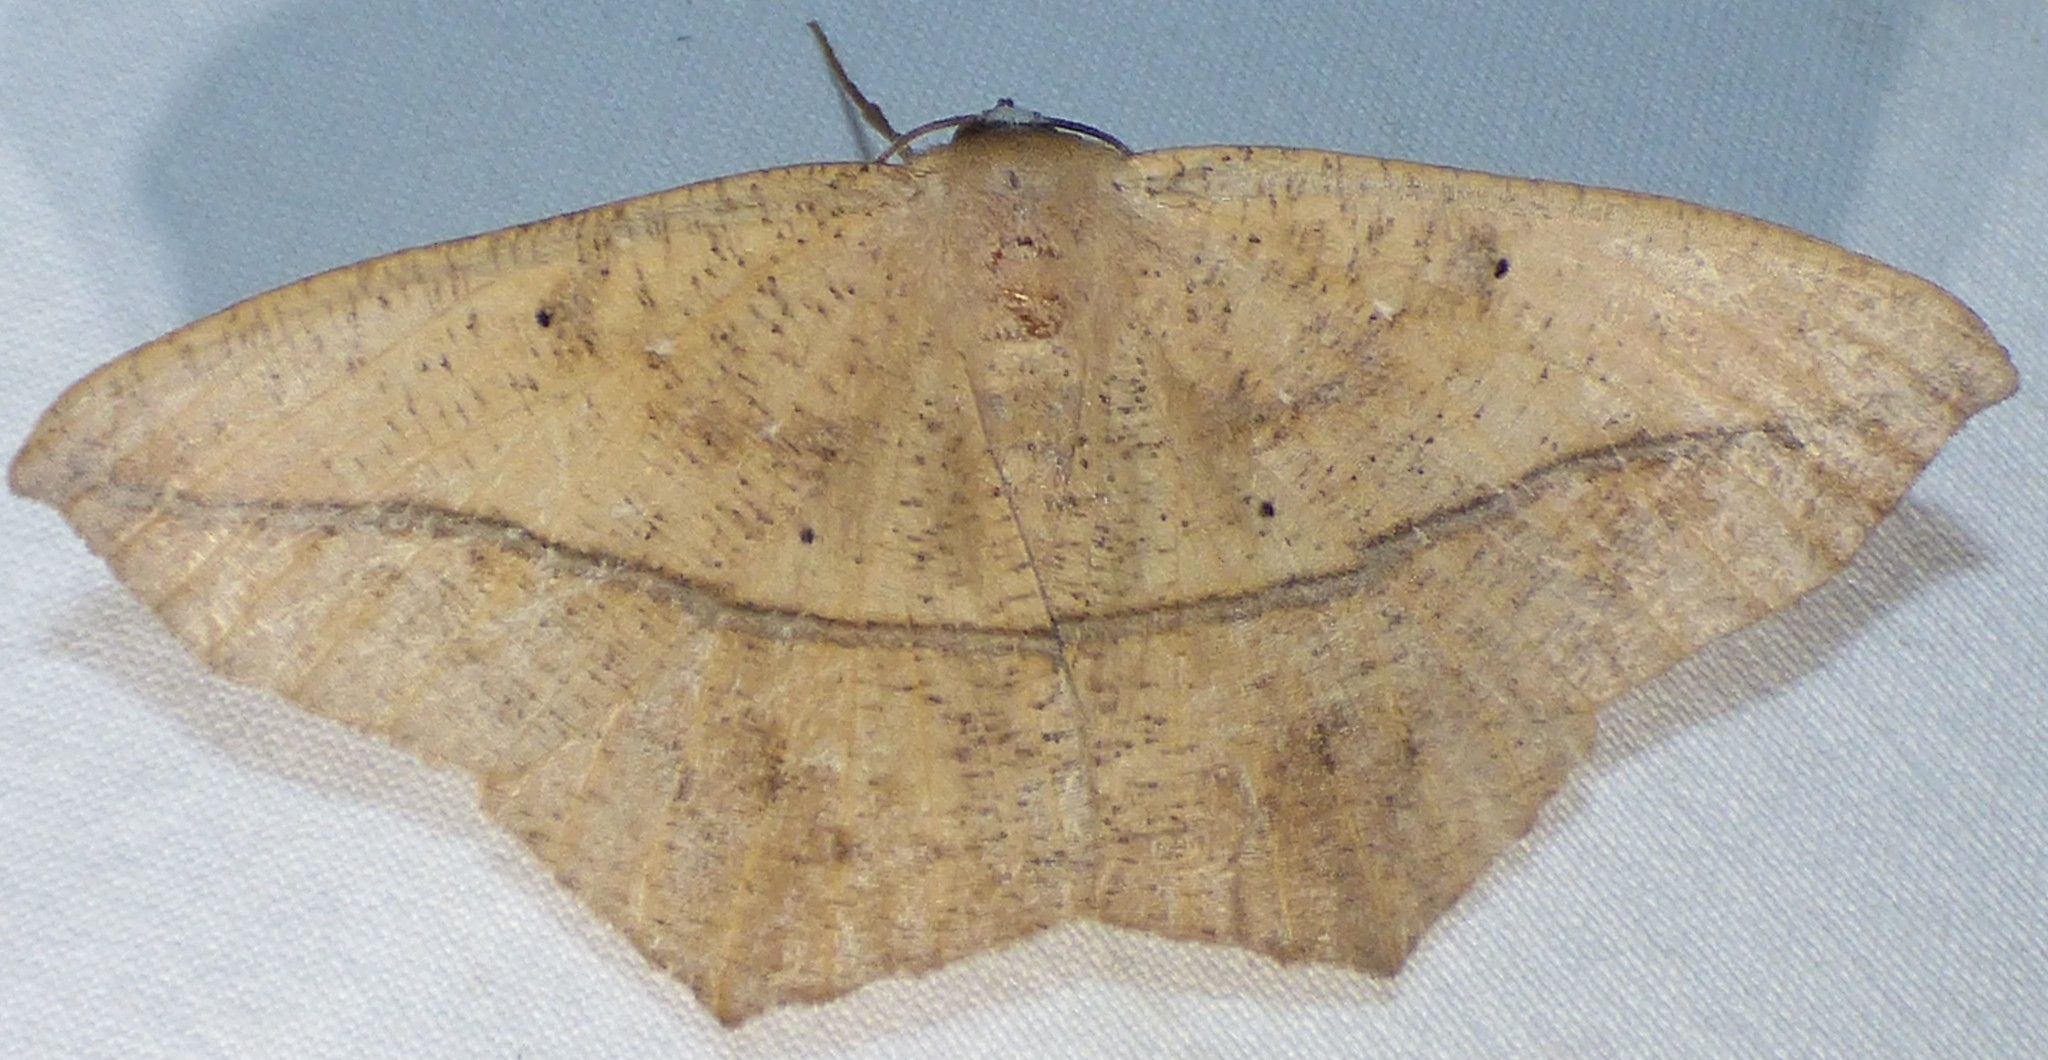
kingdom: Animalia
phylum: Arthropoda
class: Insecta
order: Lepidoptera
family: Geometridae
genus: Prochoerodes
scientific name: Prochoerodes lineola
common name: Large maple spanworm
